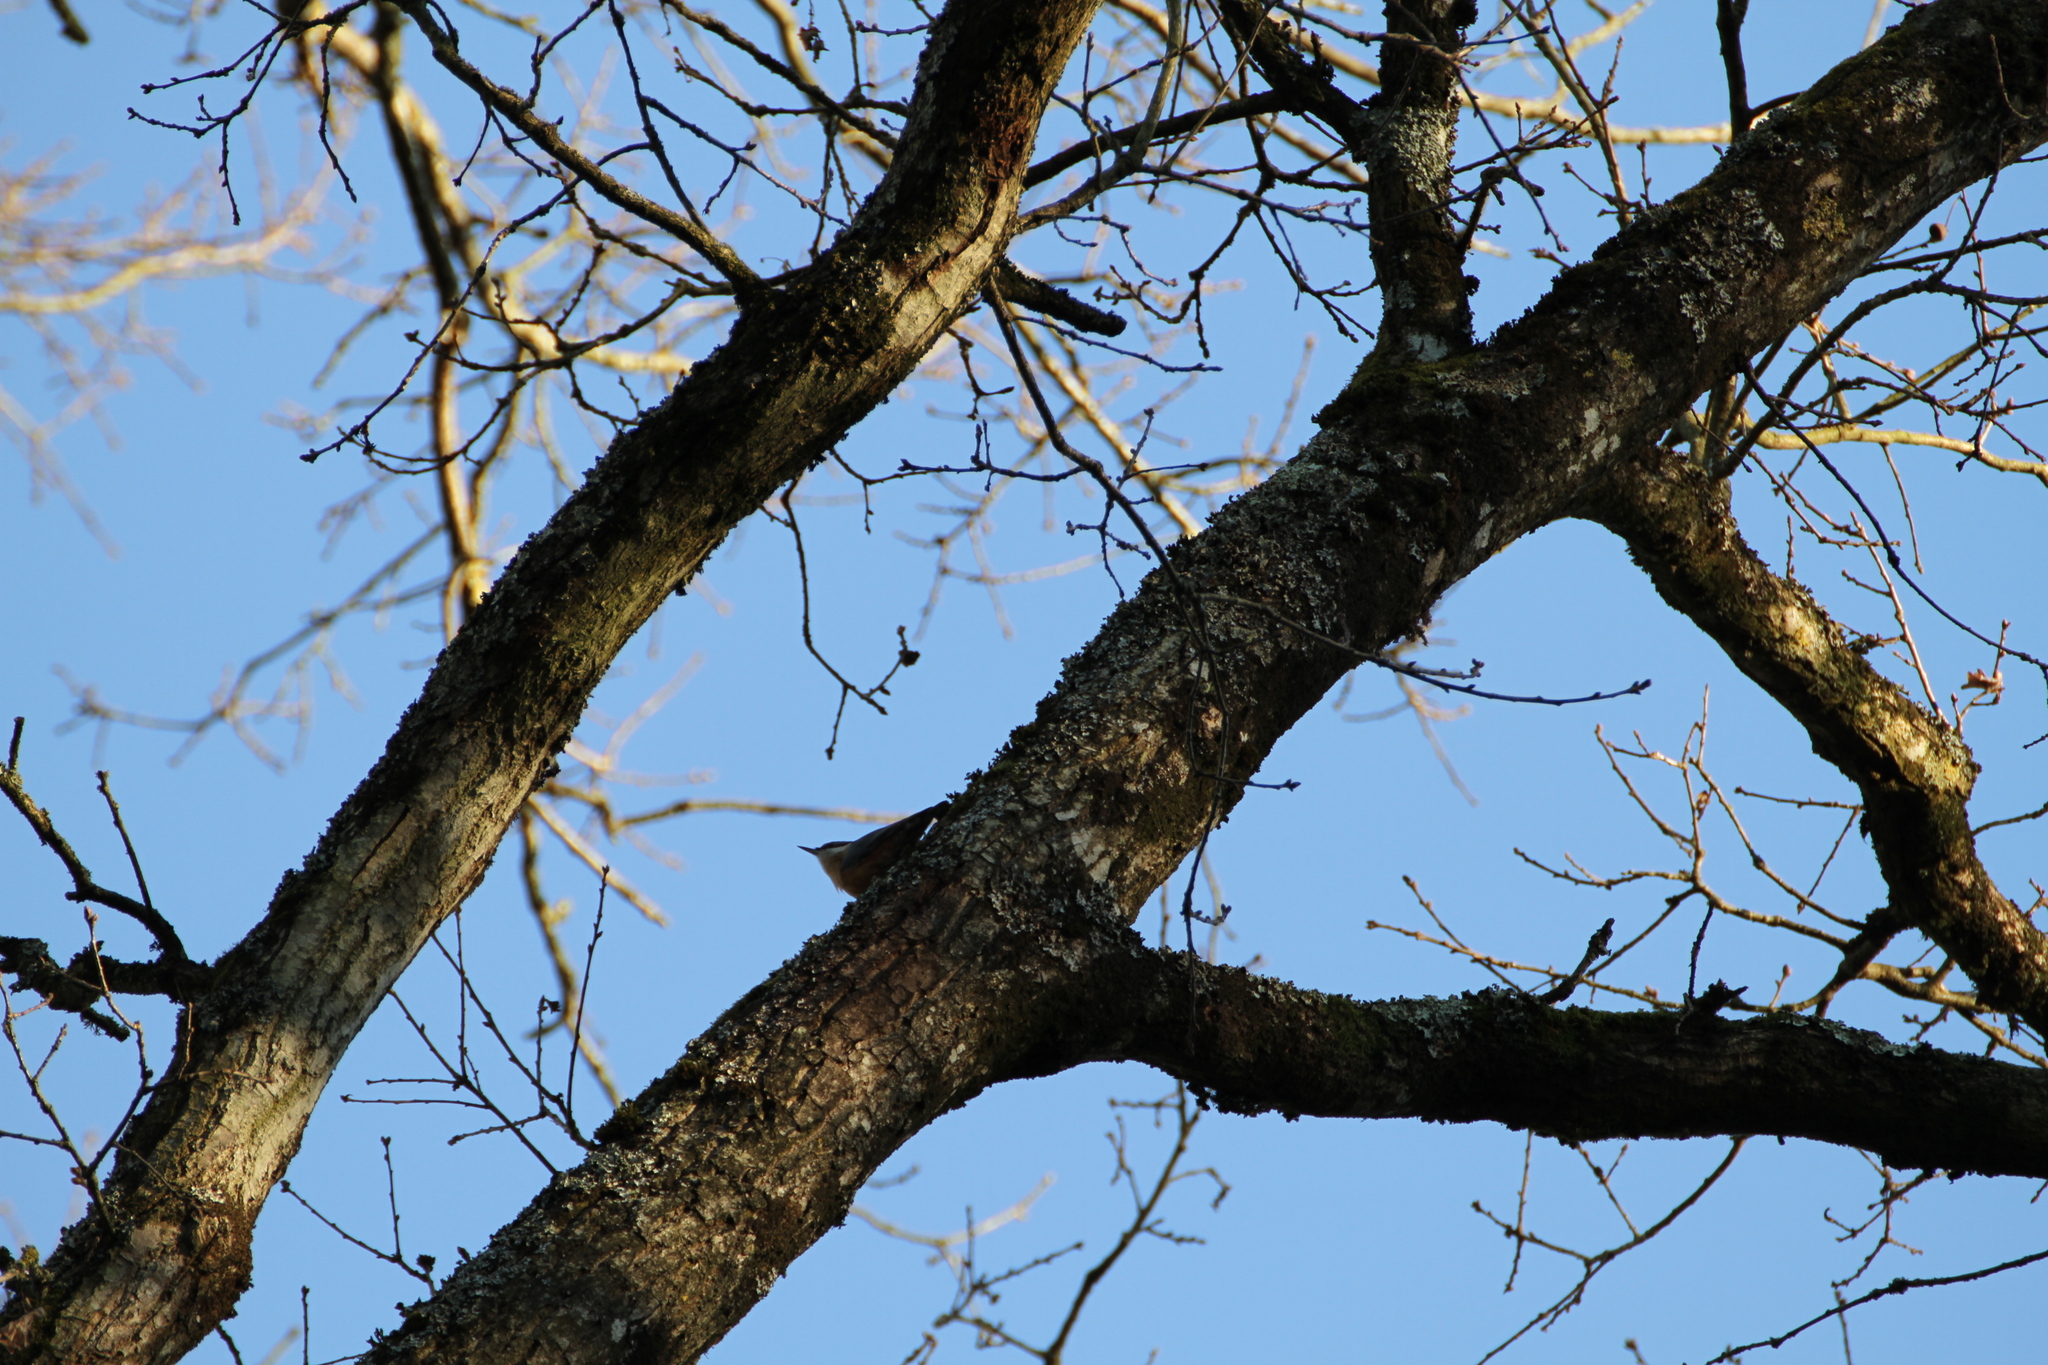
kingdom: Animalia
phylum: Chordata
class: Aves
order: Passeriformes
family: Sittidae
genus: Sitta
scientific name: Sitta europaea
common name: Eurasian nuthatch
